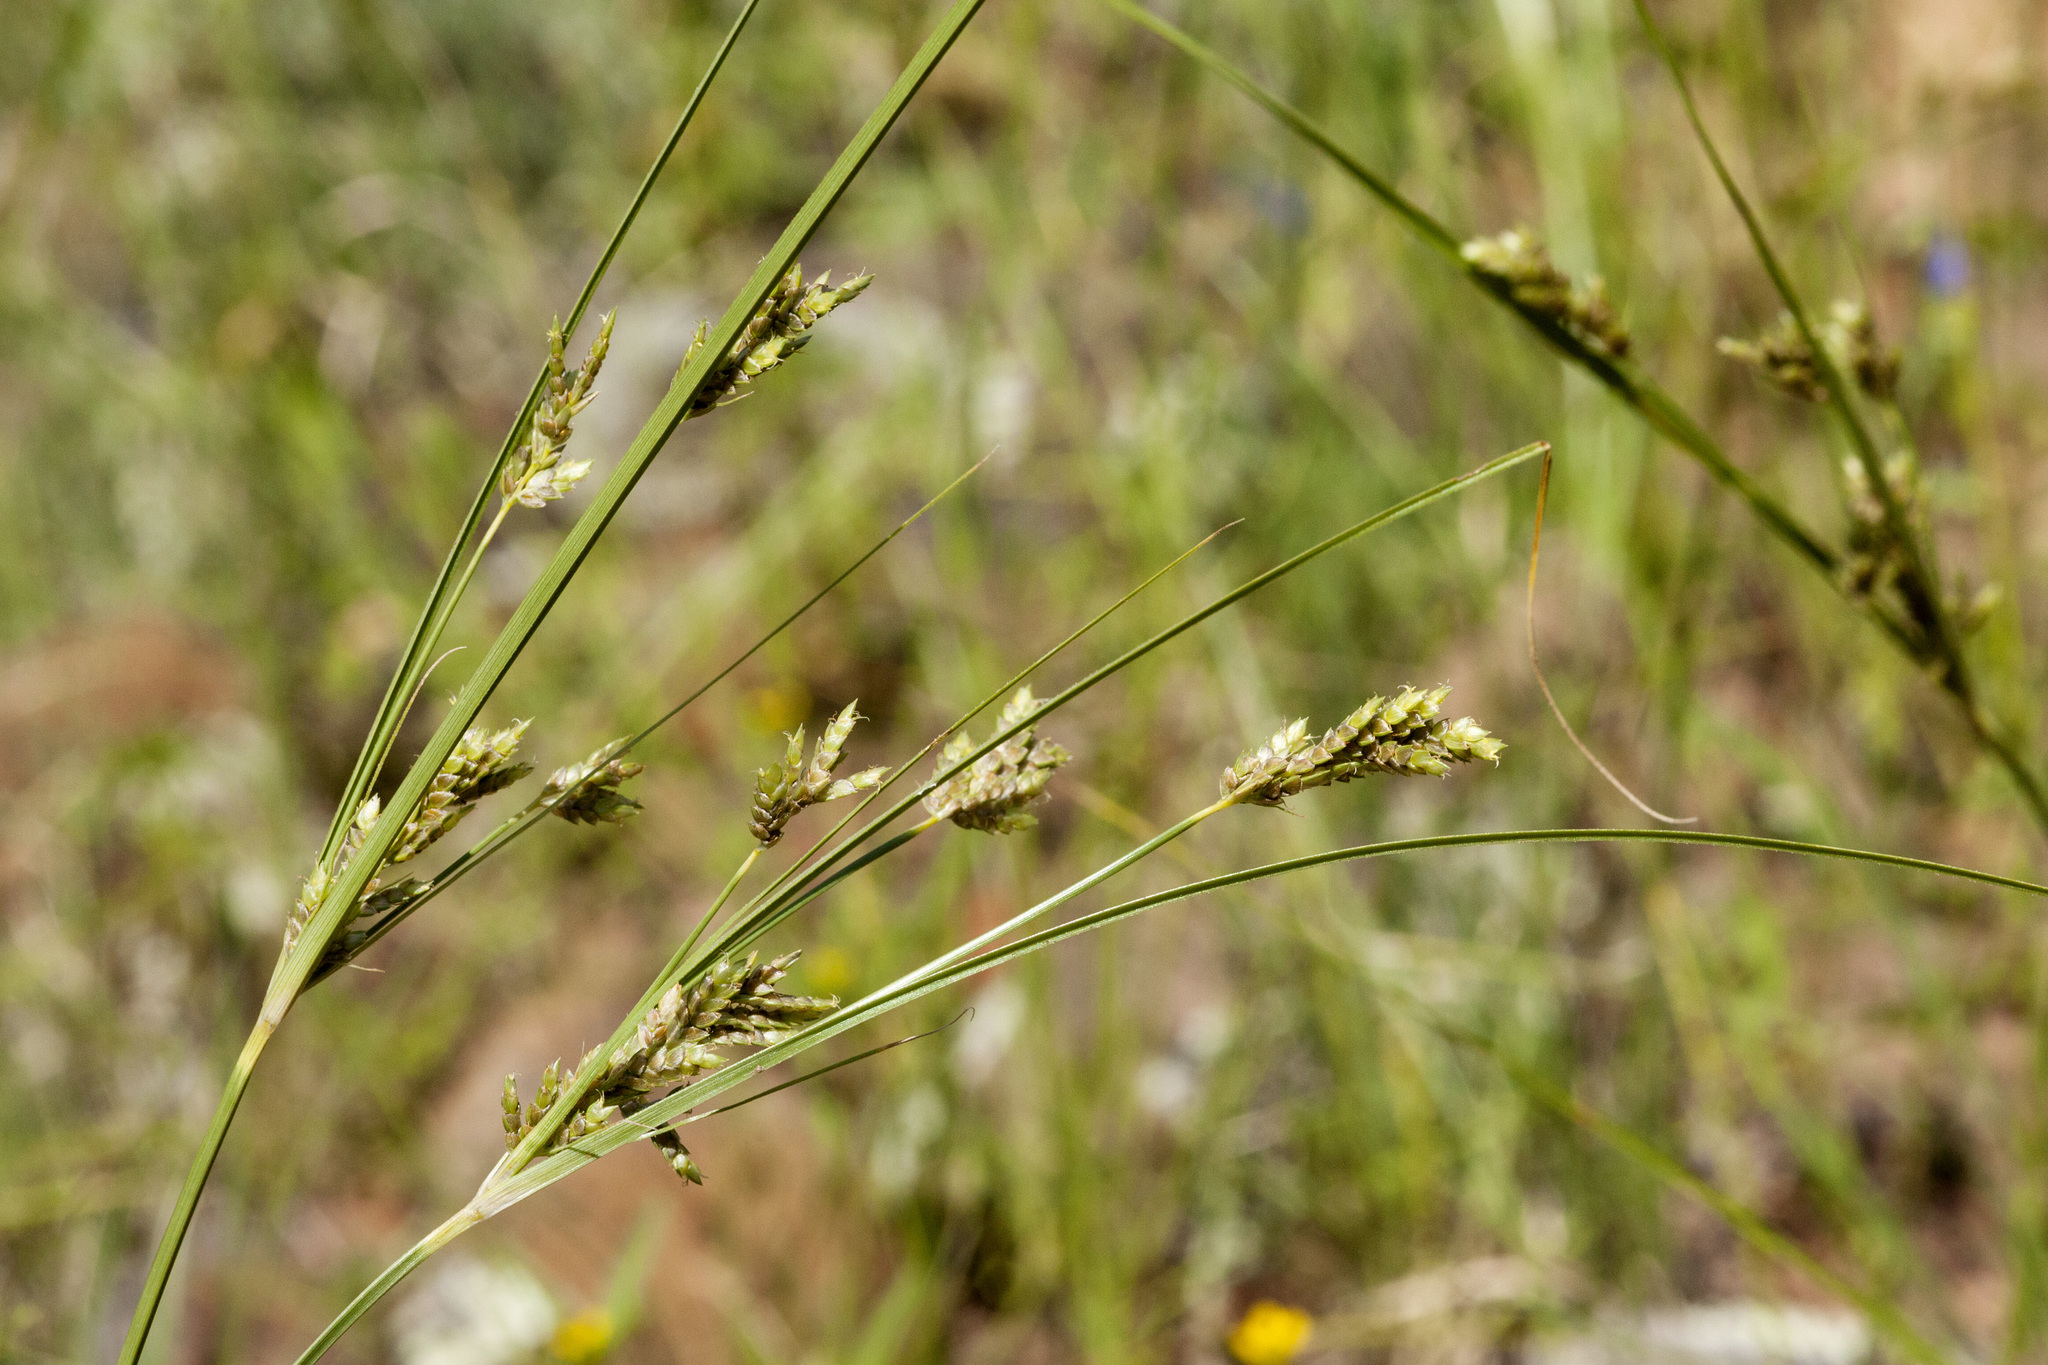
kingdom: Plantae
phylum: Tracheophyta
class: Liliopsida
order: Poales
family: Cyperaceae
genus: Cyperus
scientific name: Cyperus sphaerolepis
